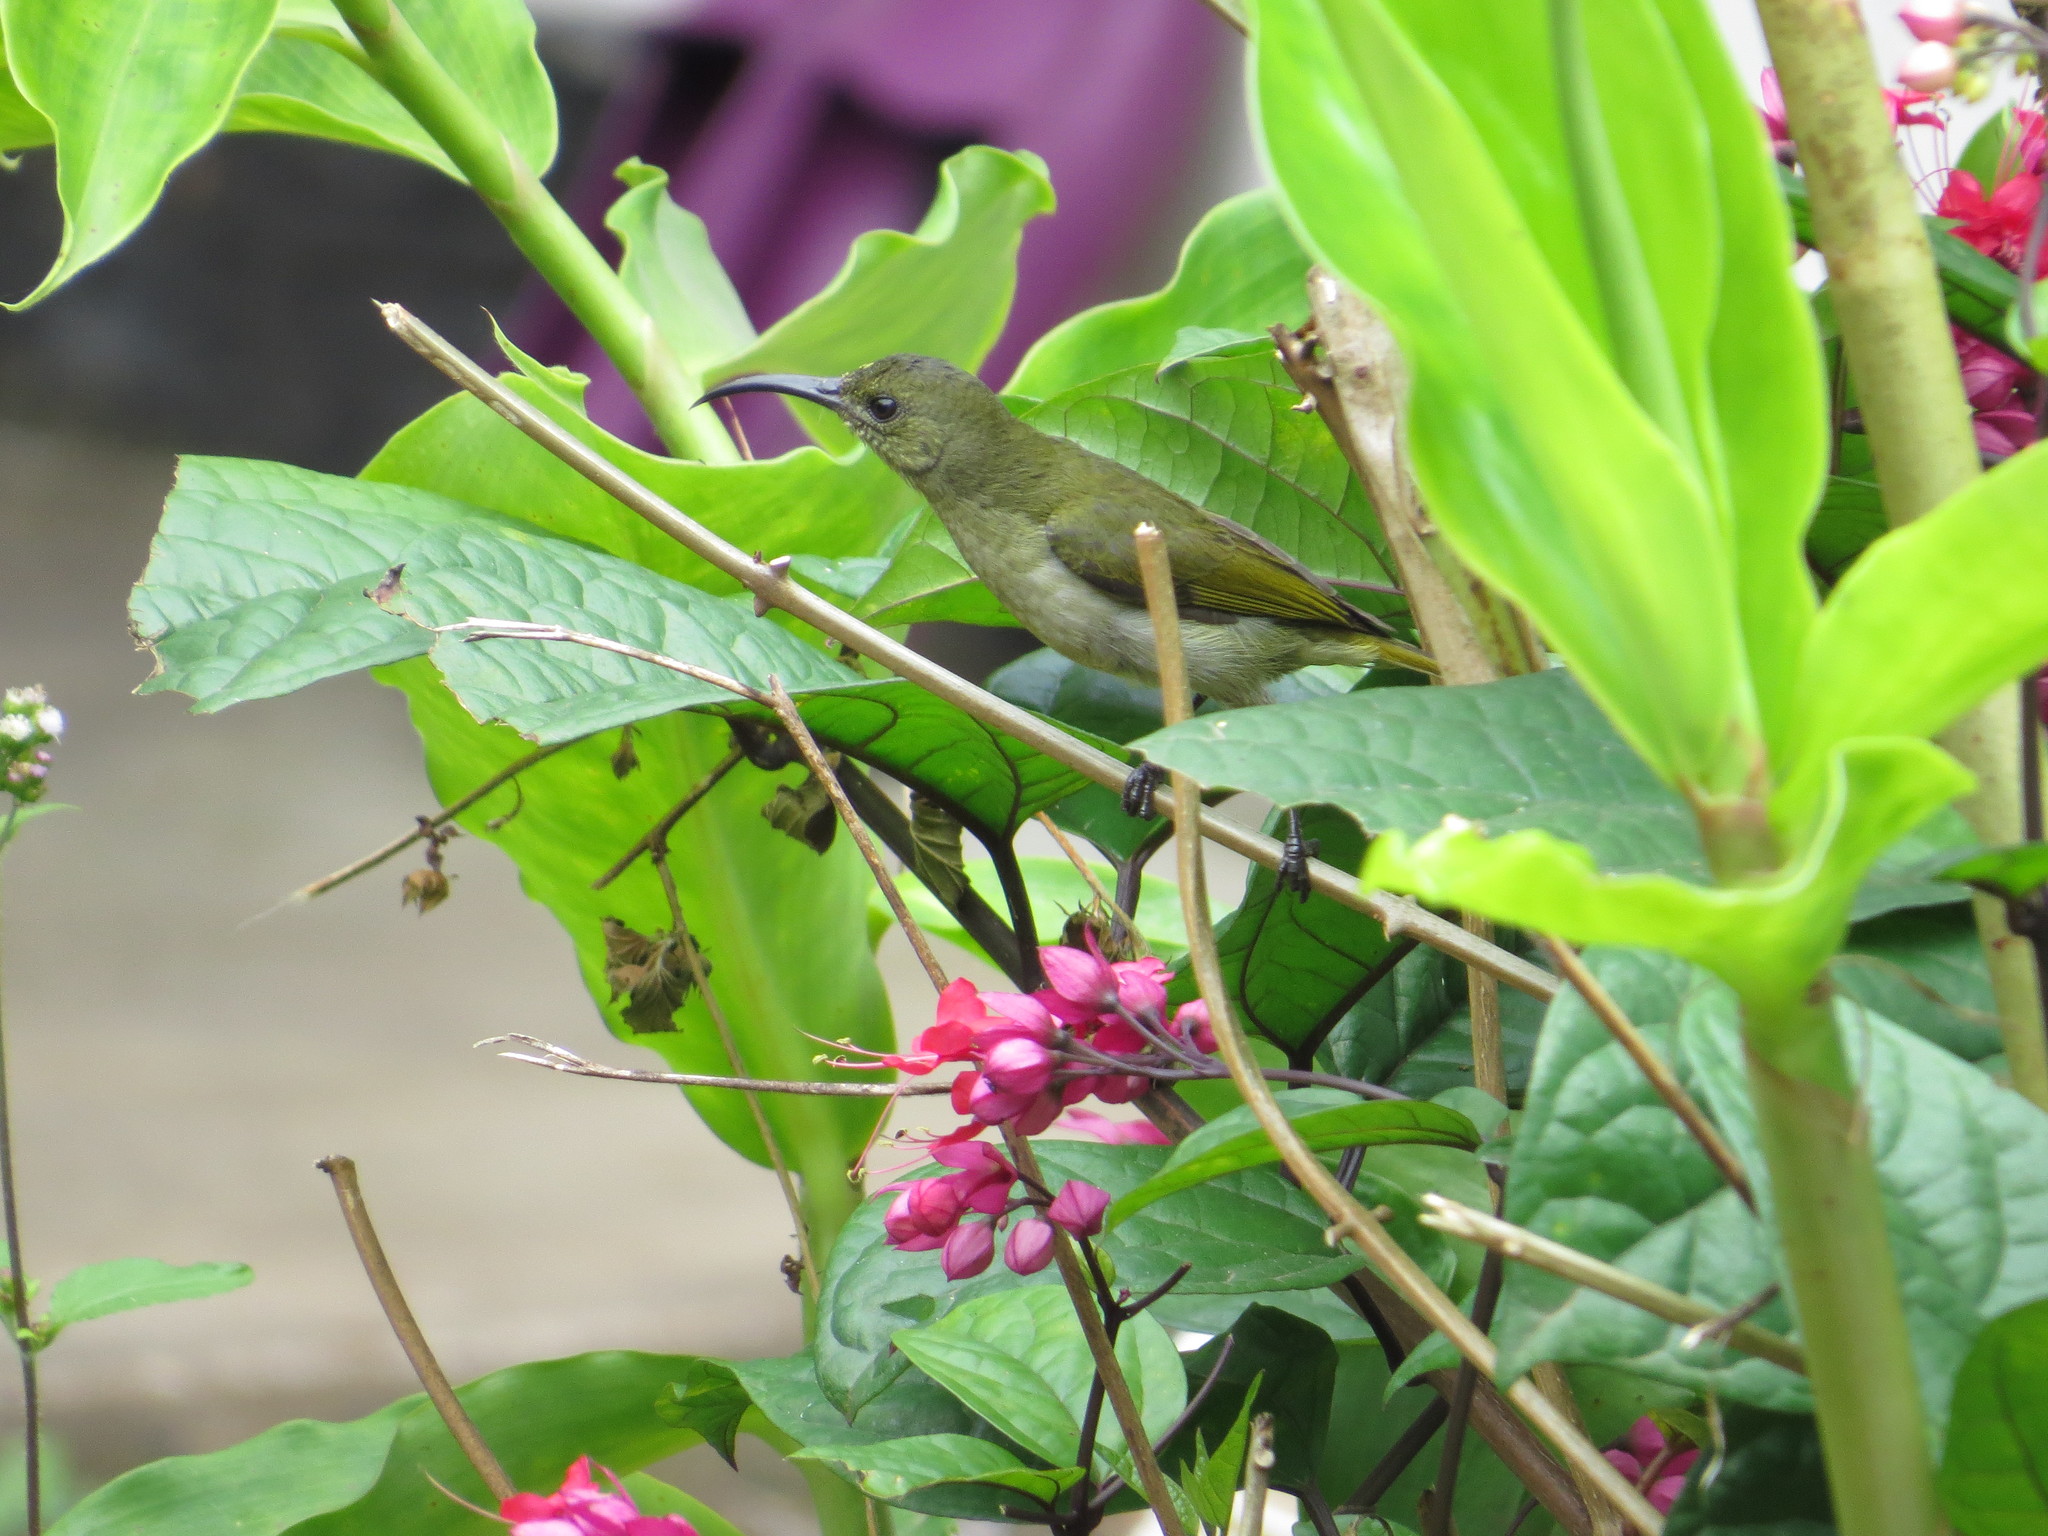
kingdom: Animalia
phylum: Chordata
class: Aves
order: Passeriformes
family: Nectariniidae
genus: Cyanomitra
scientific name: Cyanomitra olivacea
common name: Olive sunbird
